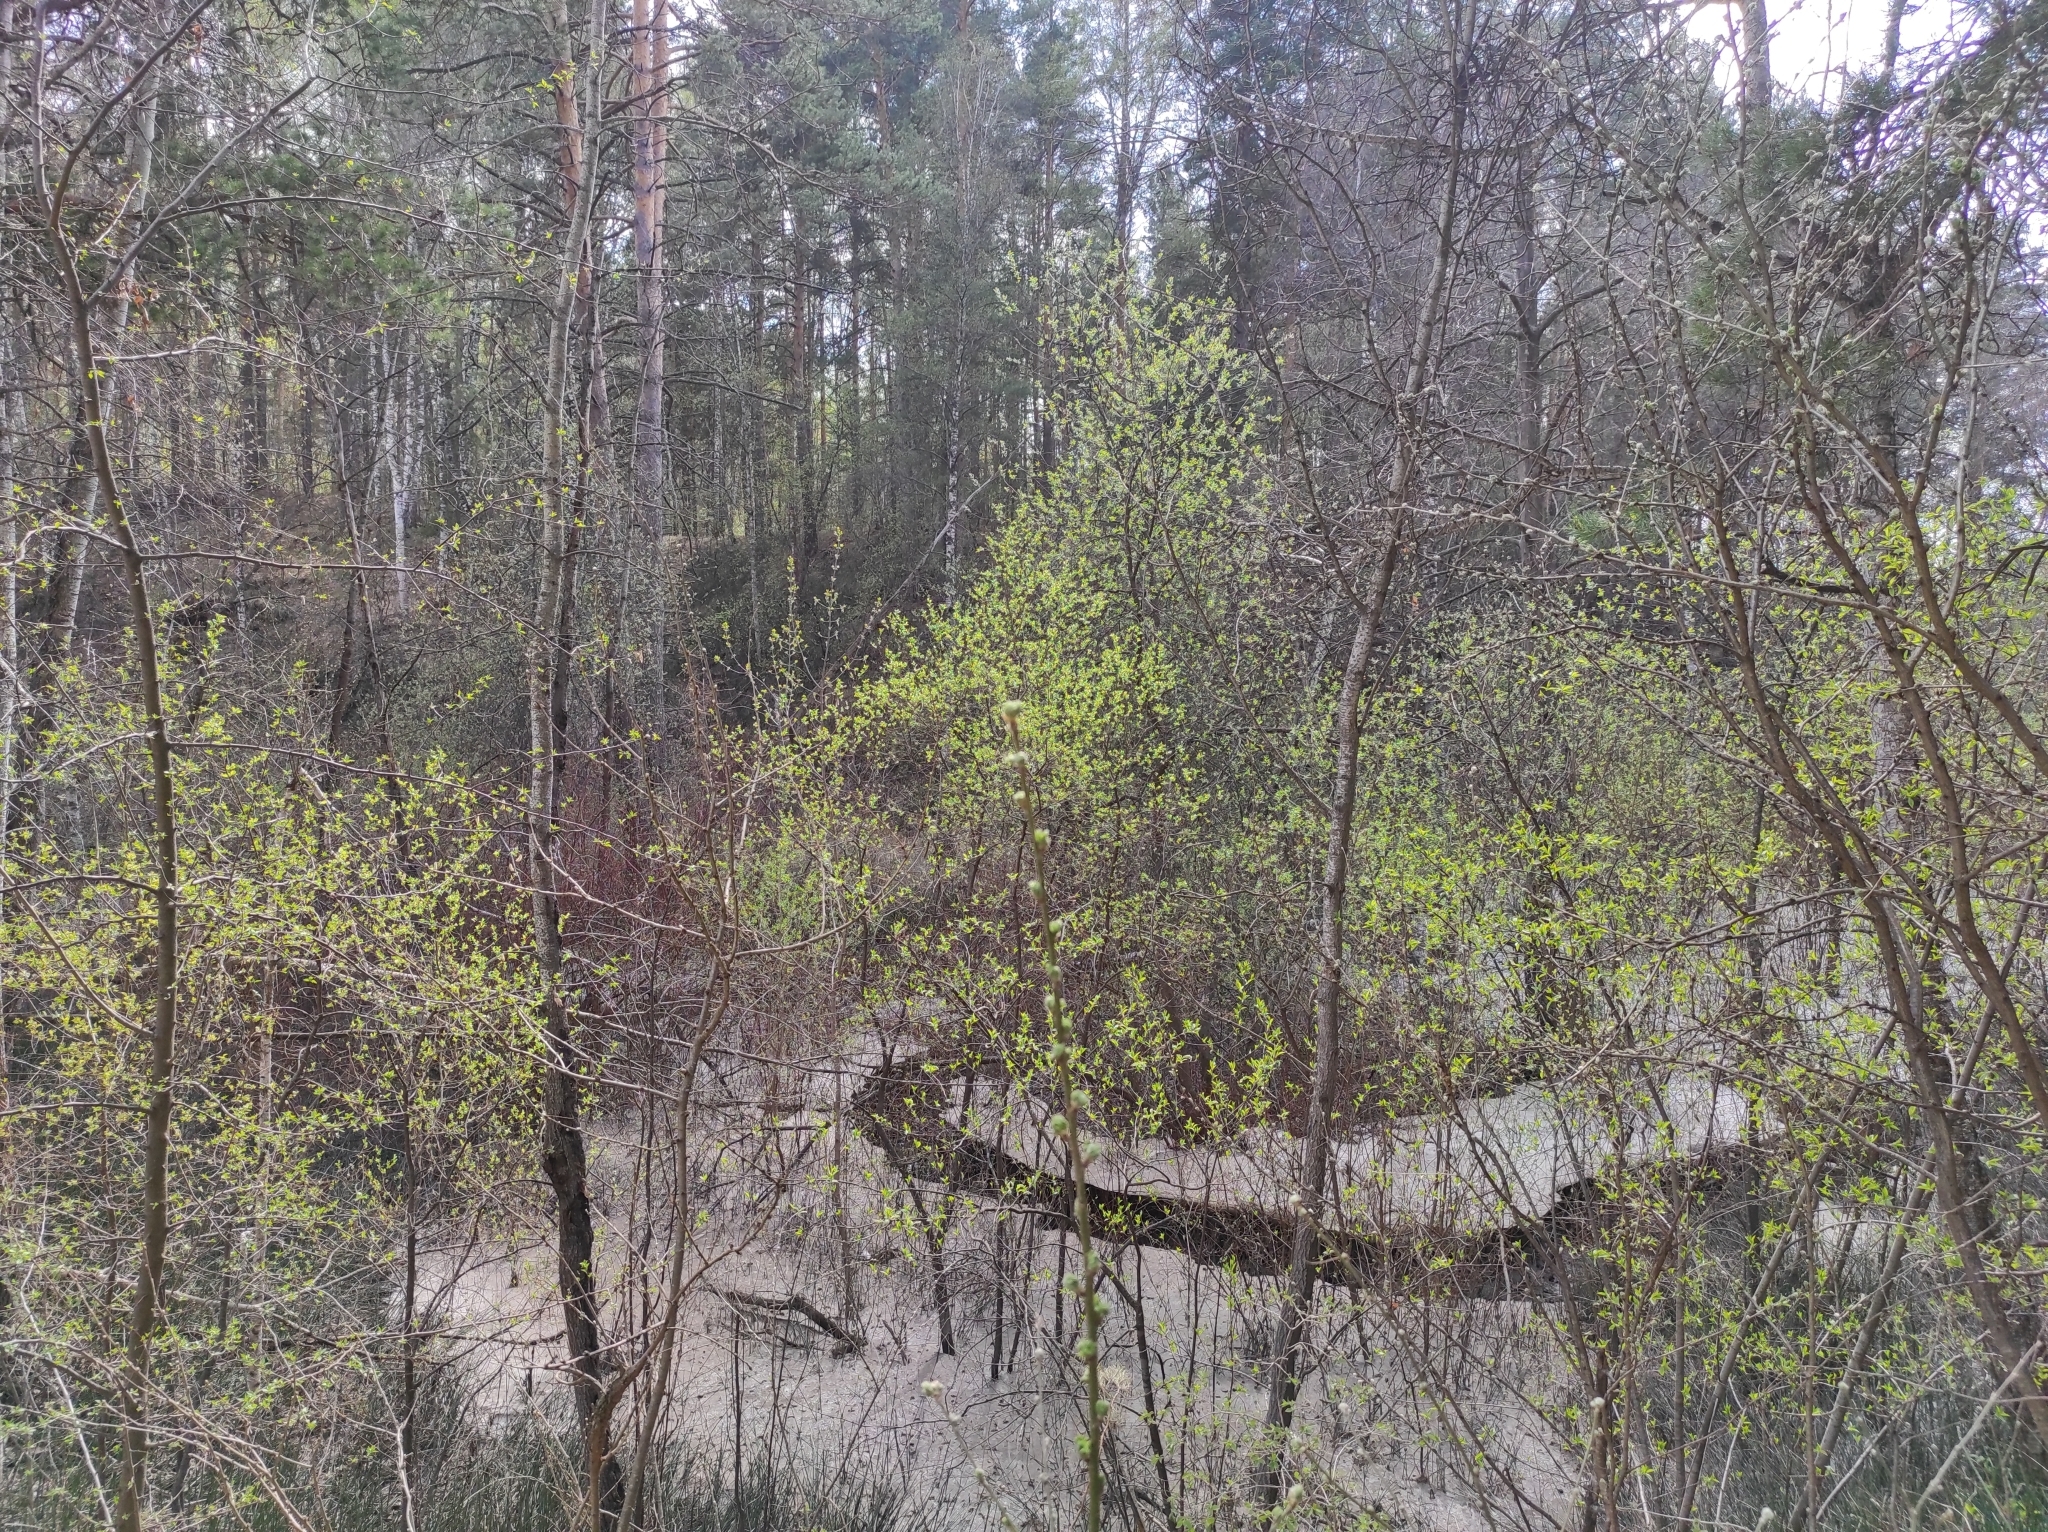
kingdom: Plantae
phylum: Tracheophyta
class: Pinopsida
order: Pinales
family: Pinaceae
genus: Pinus
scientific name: Pinus sylvestris
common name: Scots pine
